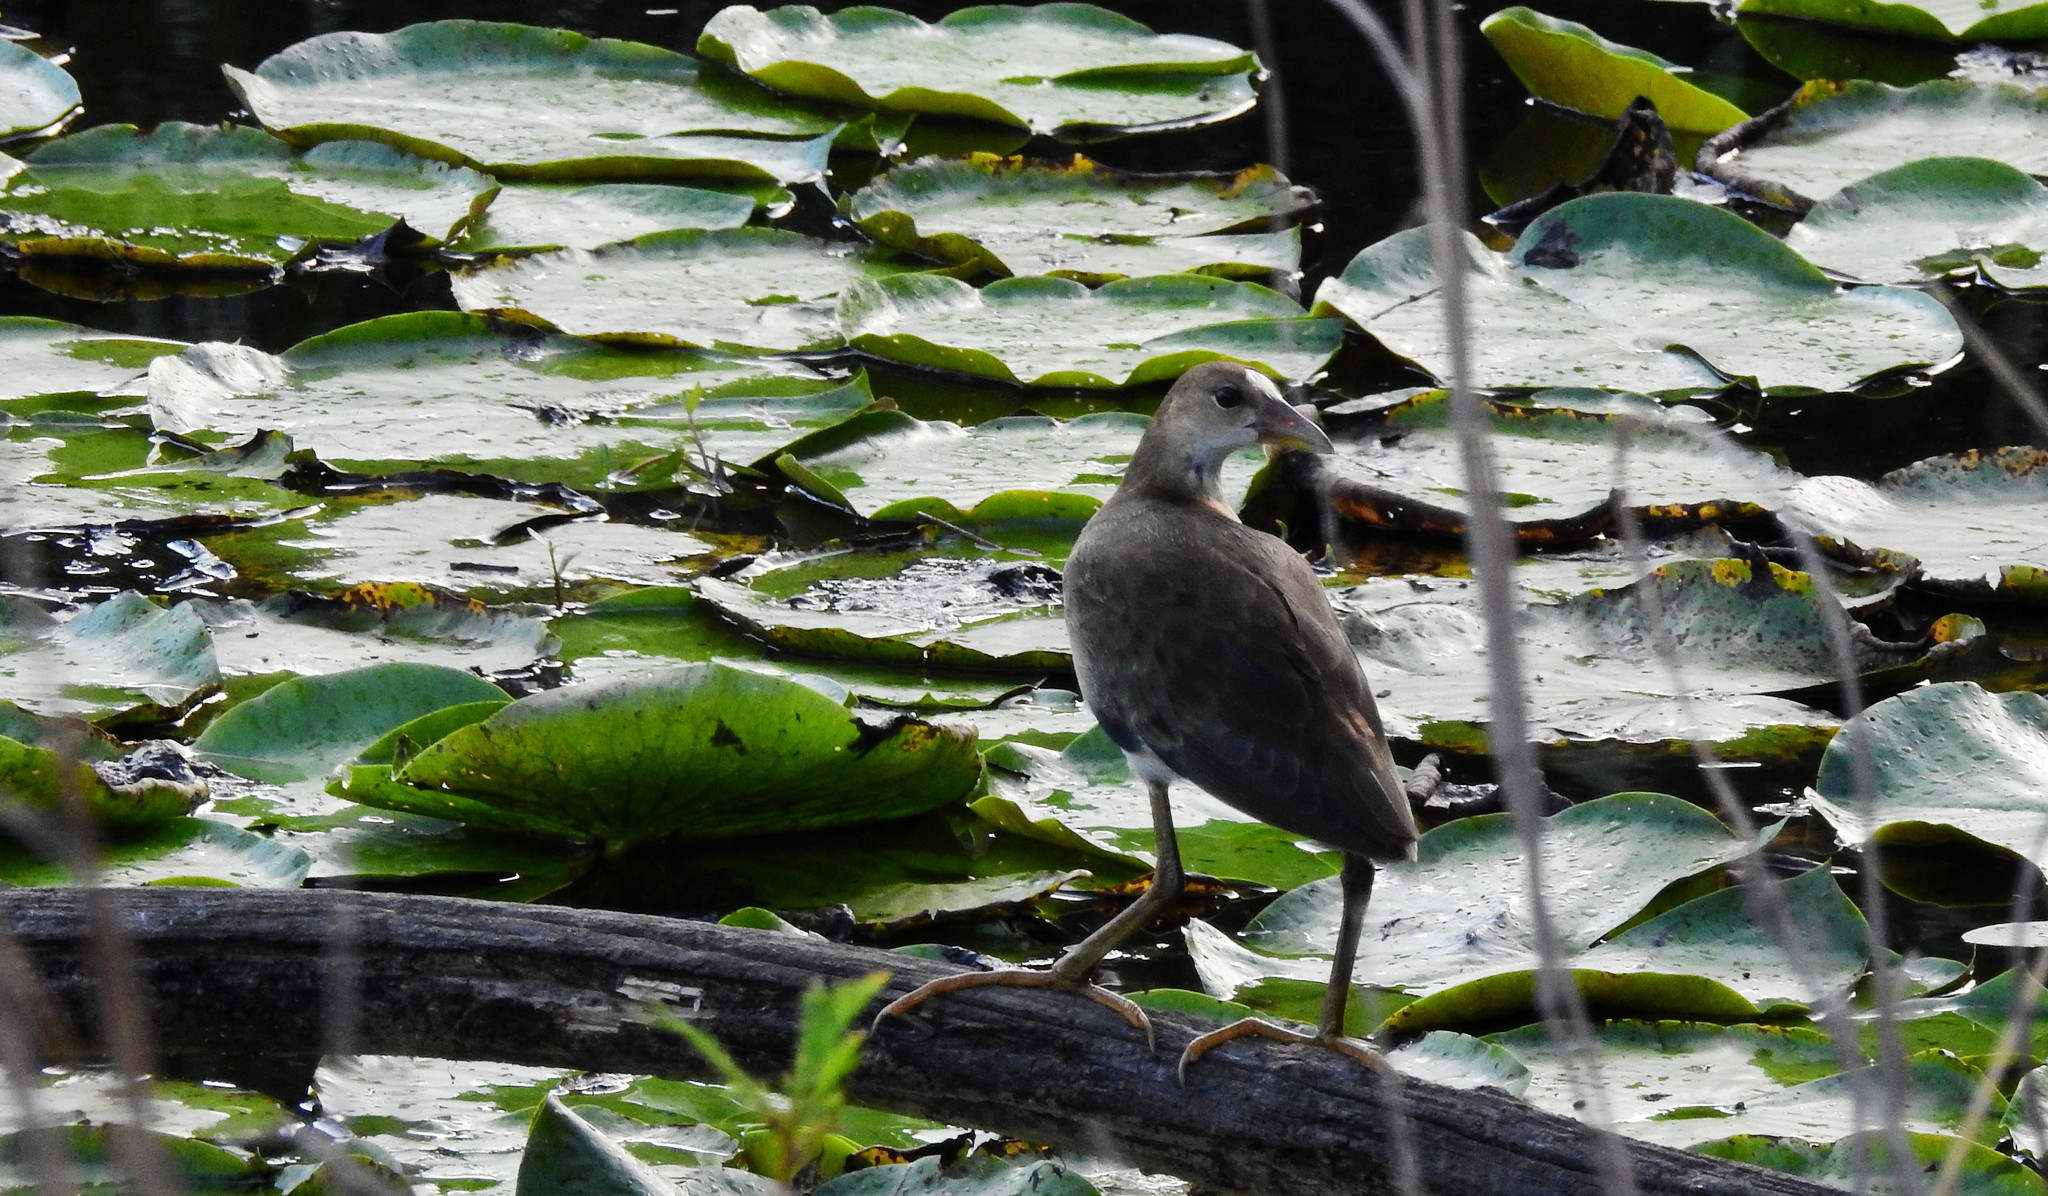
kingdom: Animalia
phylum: Chordata
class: Aves
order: Gruiformes
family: Rallidae
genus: Gallinula
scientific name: Gallinula chloropus
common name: Common moorhen
